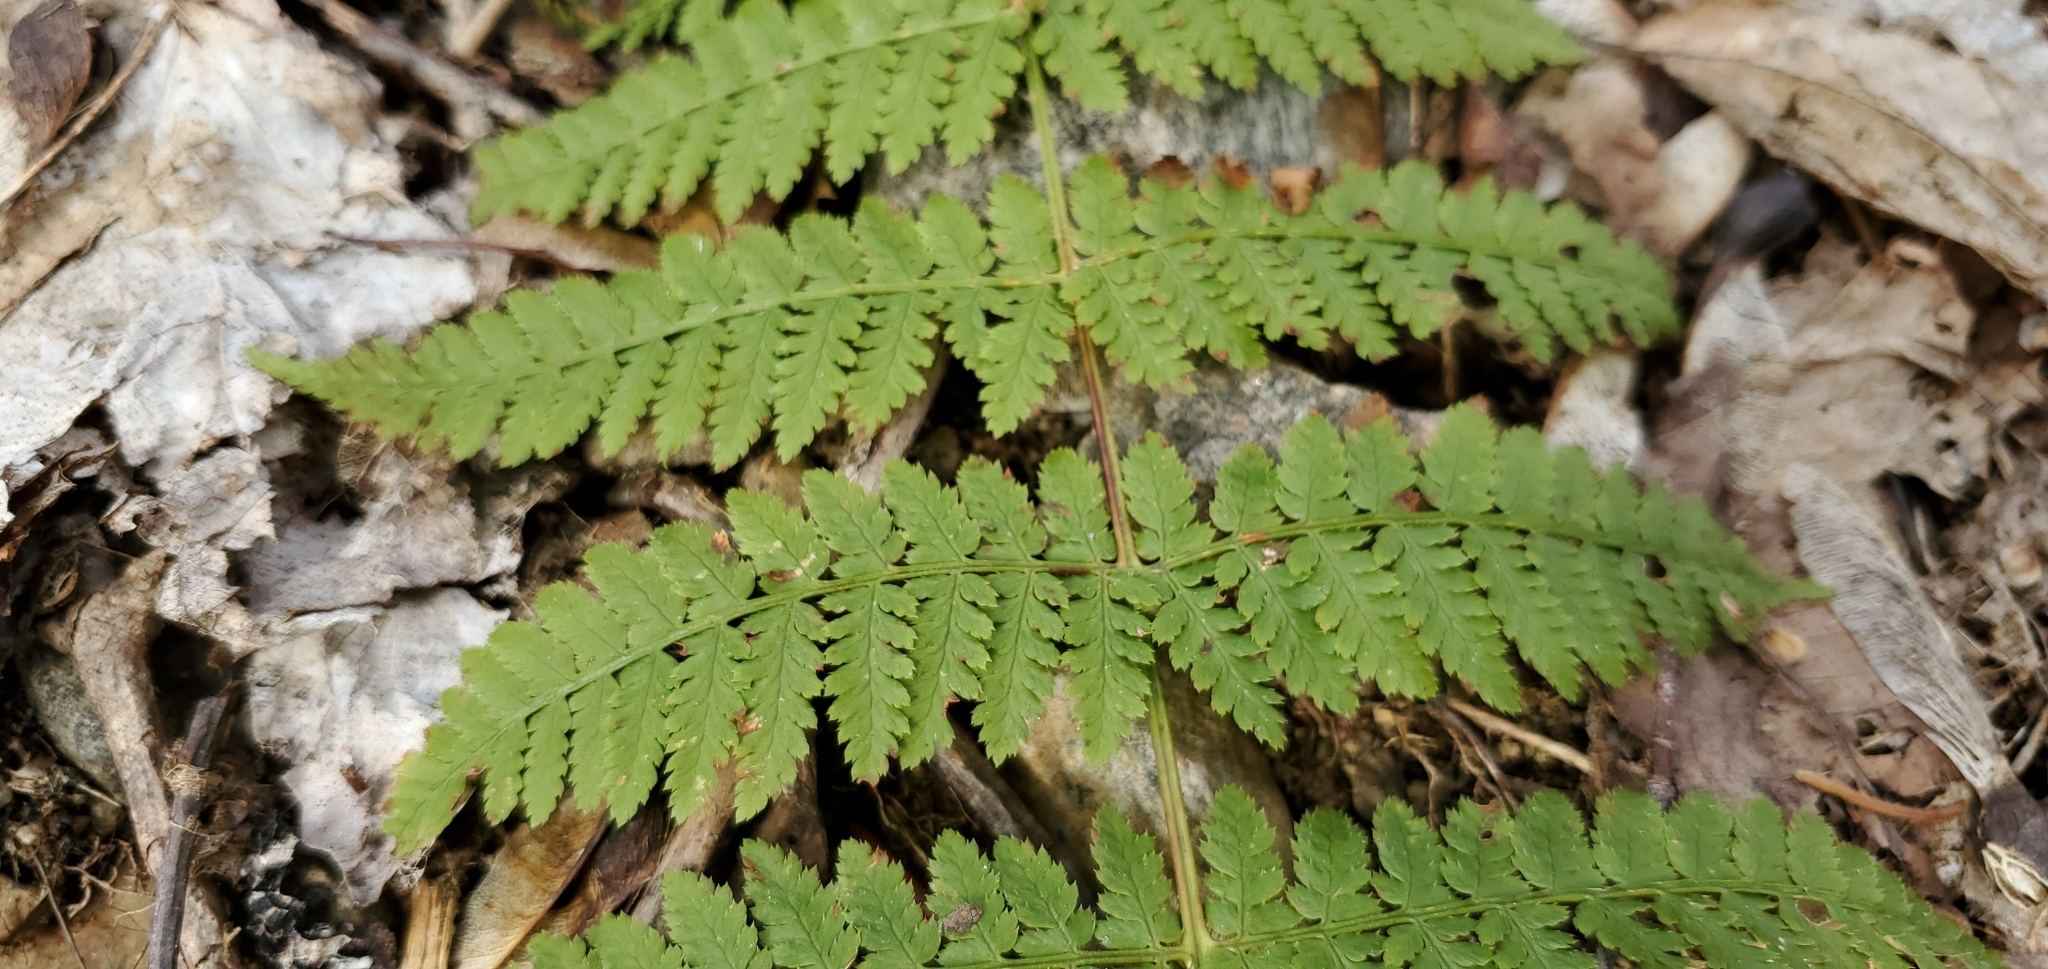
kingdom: Plantae
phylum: Tracheophyta
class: Polypodiopsida
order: Polypodiales
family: Dryopteridaceae
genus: Dryopteris
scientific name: Dryopteris intermedia
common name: Evergreen wood fern
